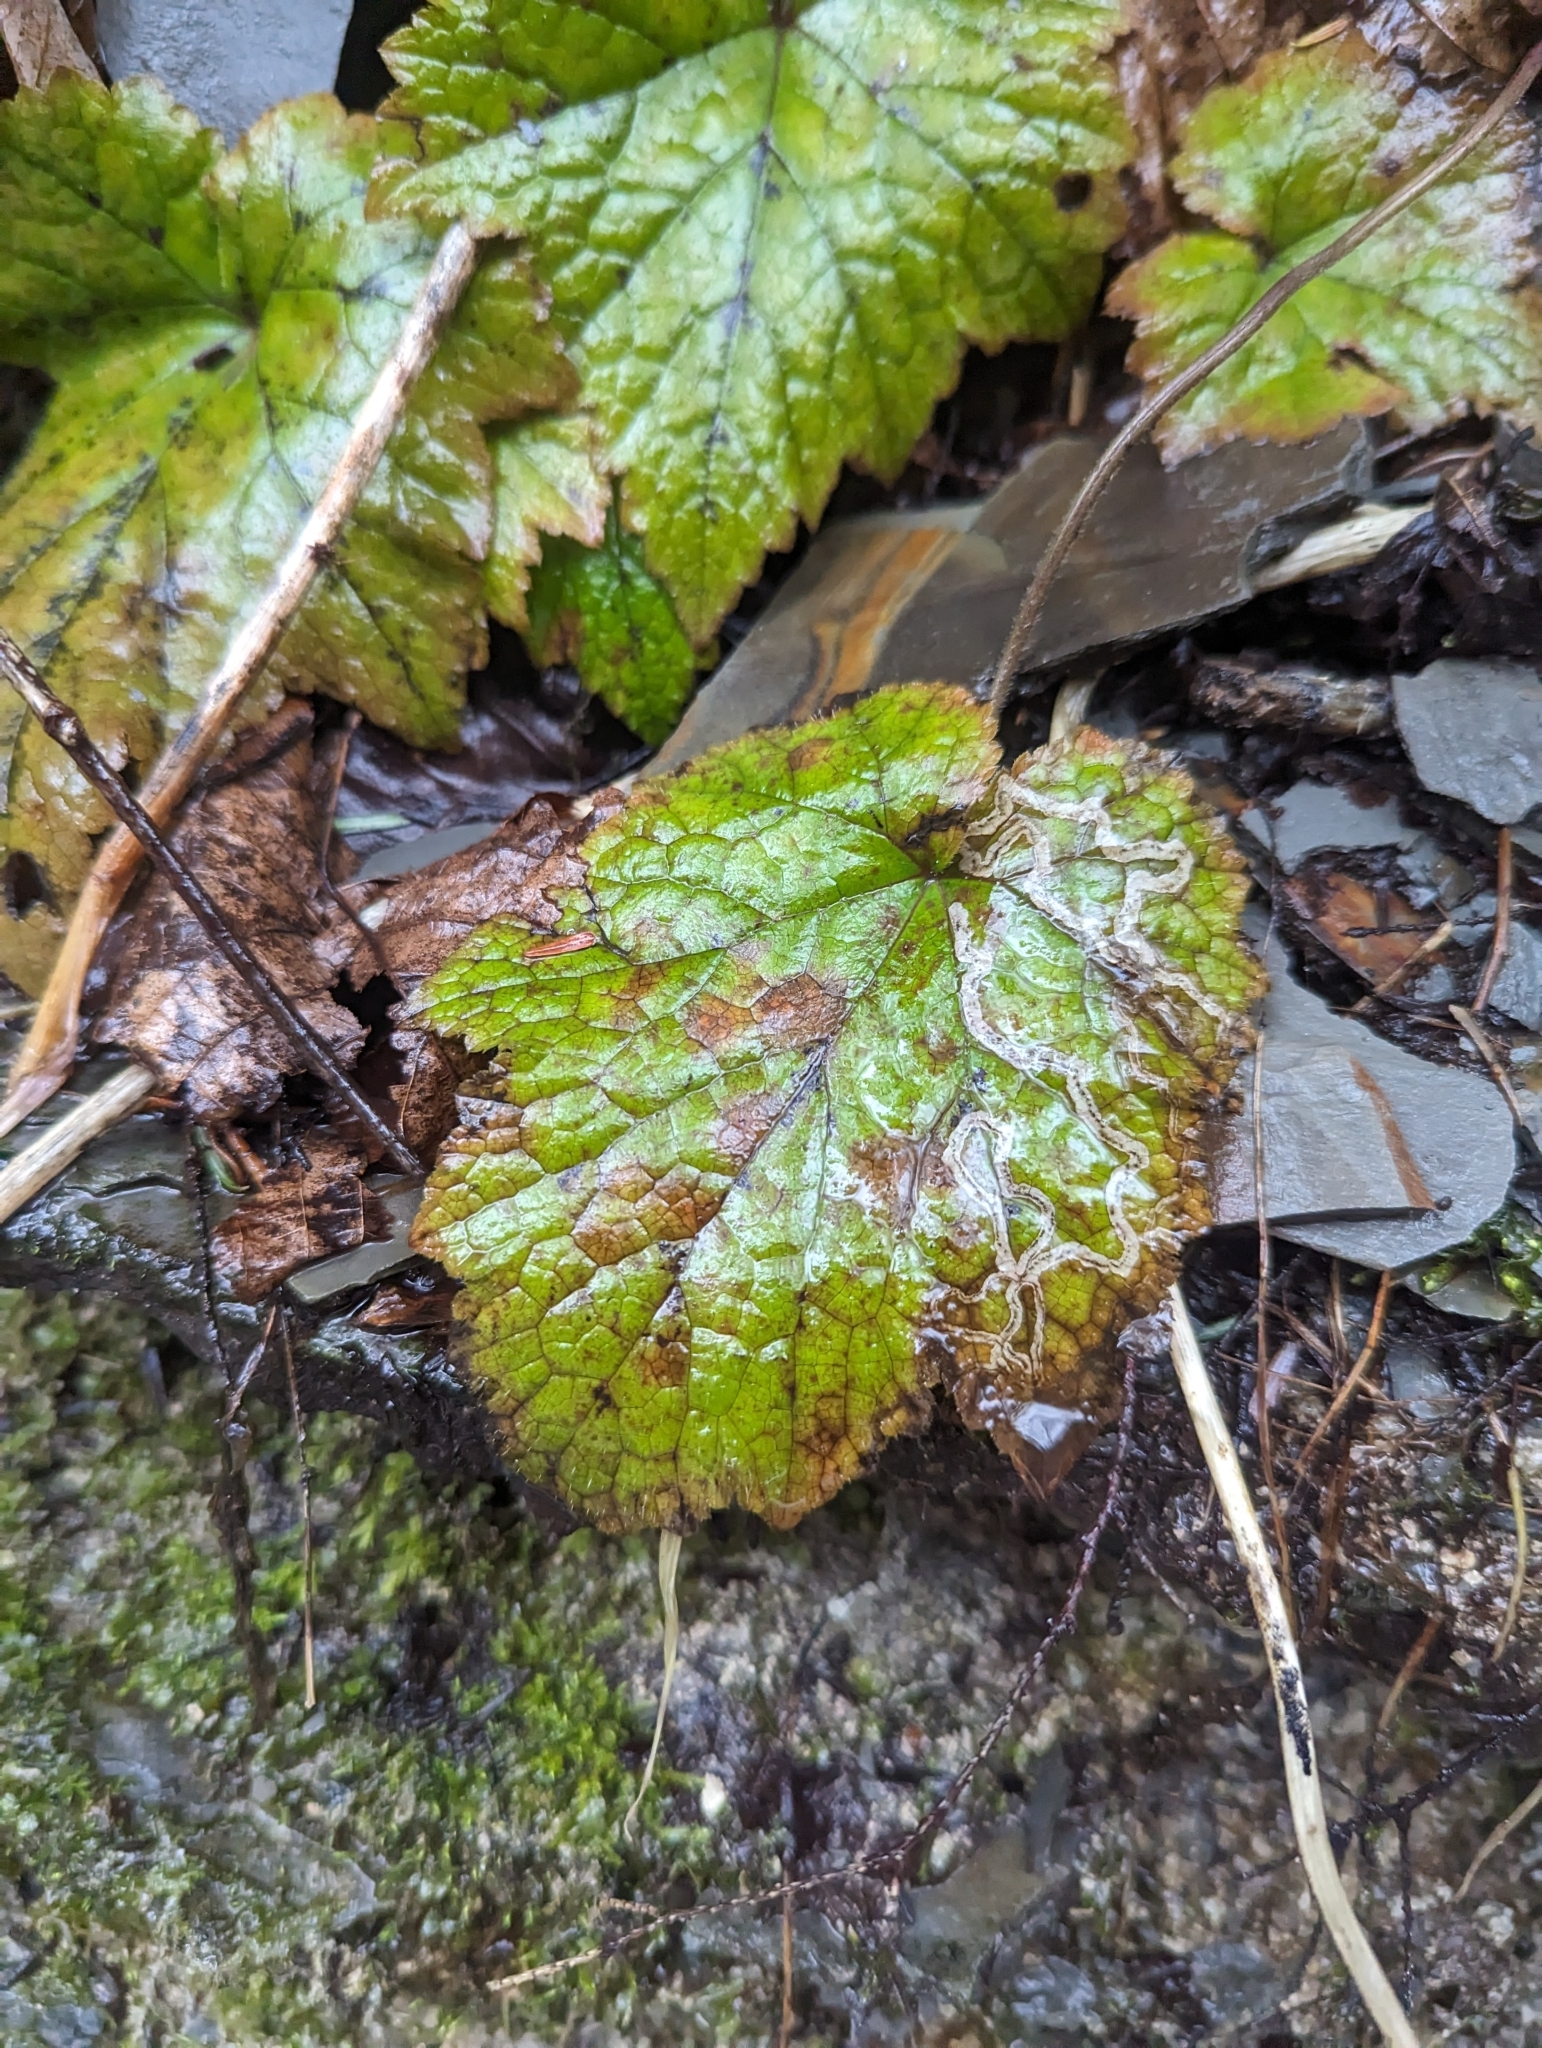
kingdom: Plantae
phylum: Tracheophyta
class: Magnoliopsida
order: Saxifragales
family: Saxifragaceae
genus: Tiarella
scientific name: Tiarella stolonifera
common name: Stoloniferous foamflower
